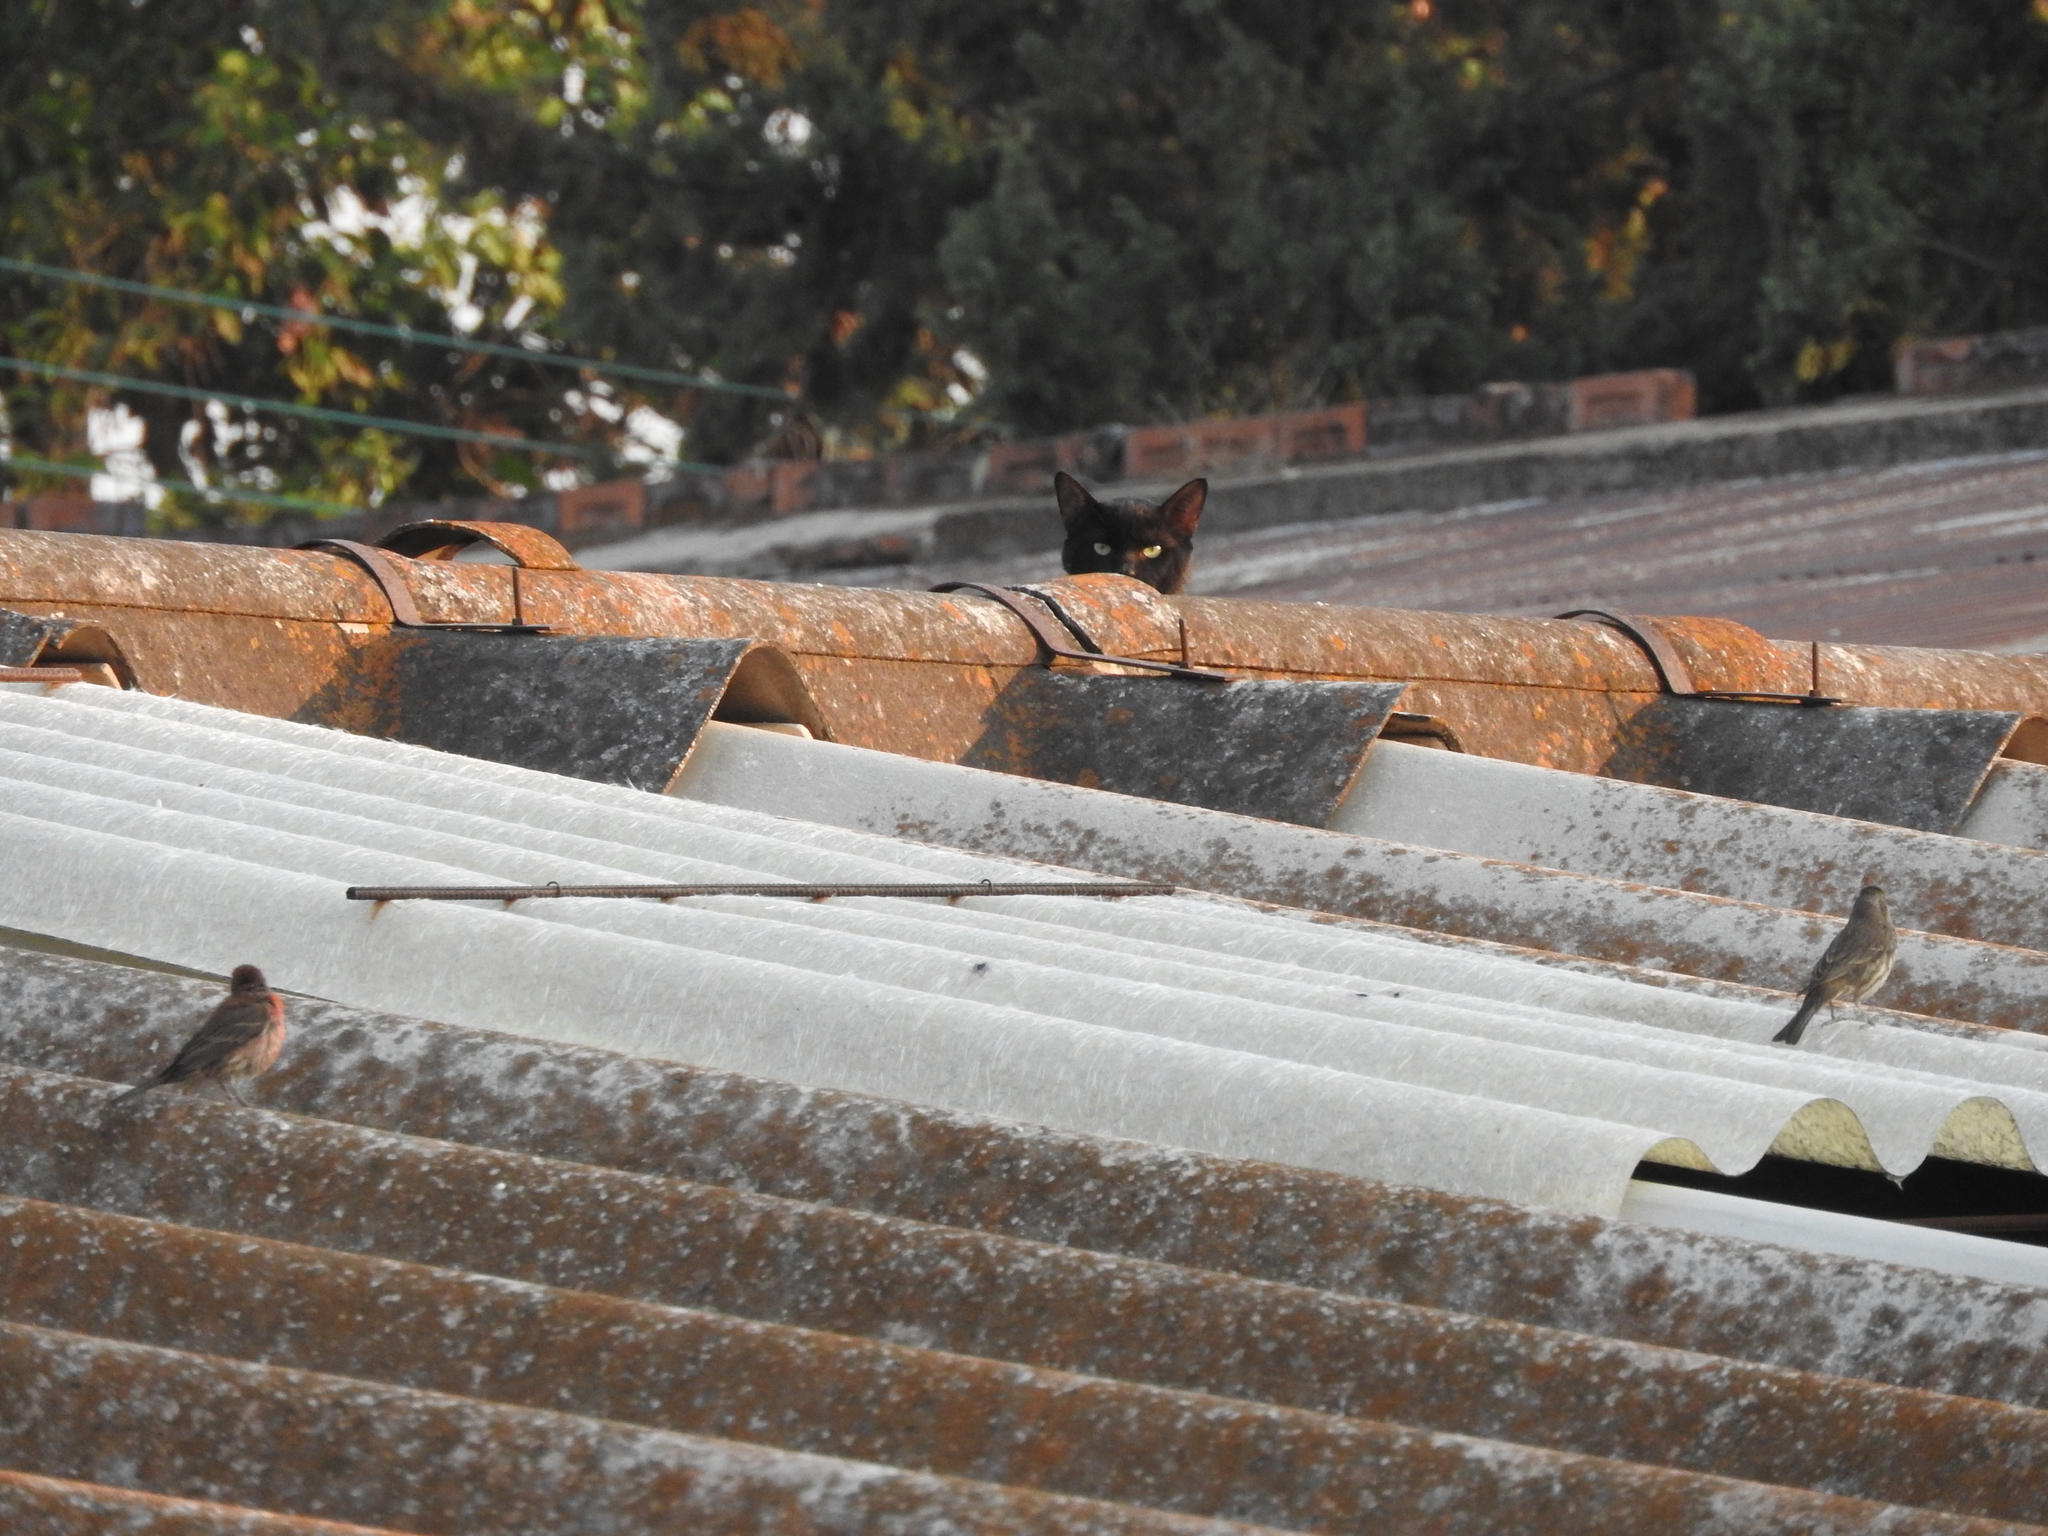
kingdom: Animalia
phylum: Chordata
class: Aves
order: Passeriformes
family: Fringillidae
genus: Haemorhous
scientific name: Haemorhous mexicanus
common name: House finch
